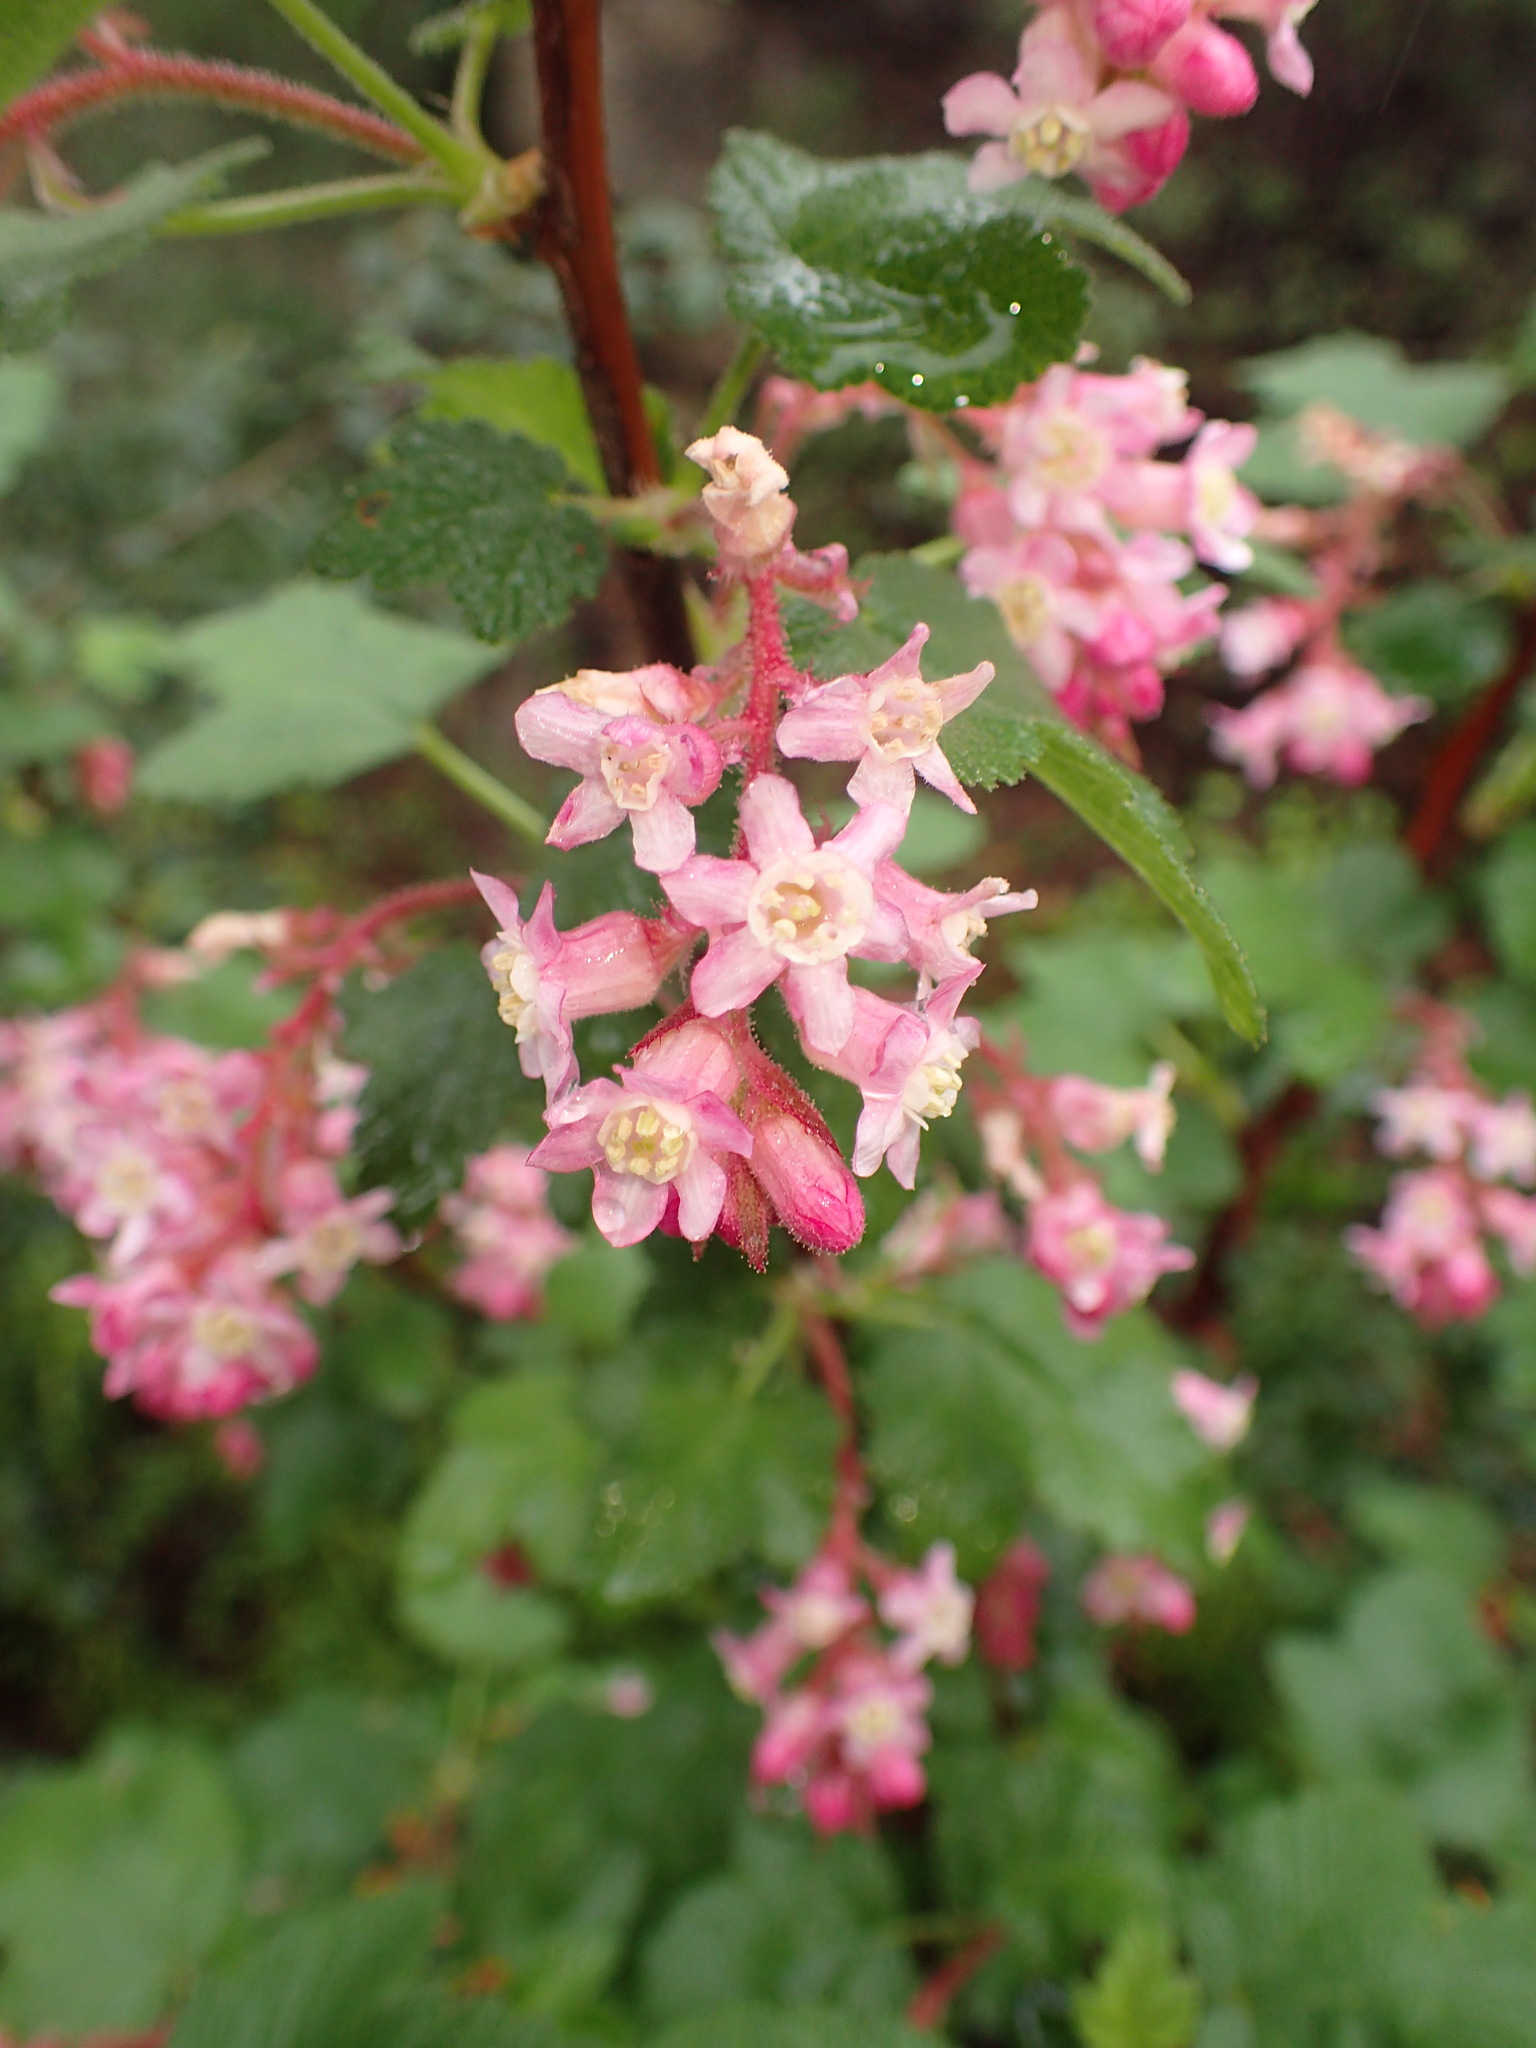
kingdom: Plantae
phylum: Tracheophyta
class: Magnoliopsida
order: Saxifragales
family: Grossulariaceae
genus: Ribes
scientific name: Ribes malvaceum
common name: Chaparral currant
